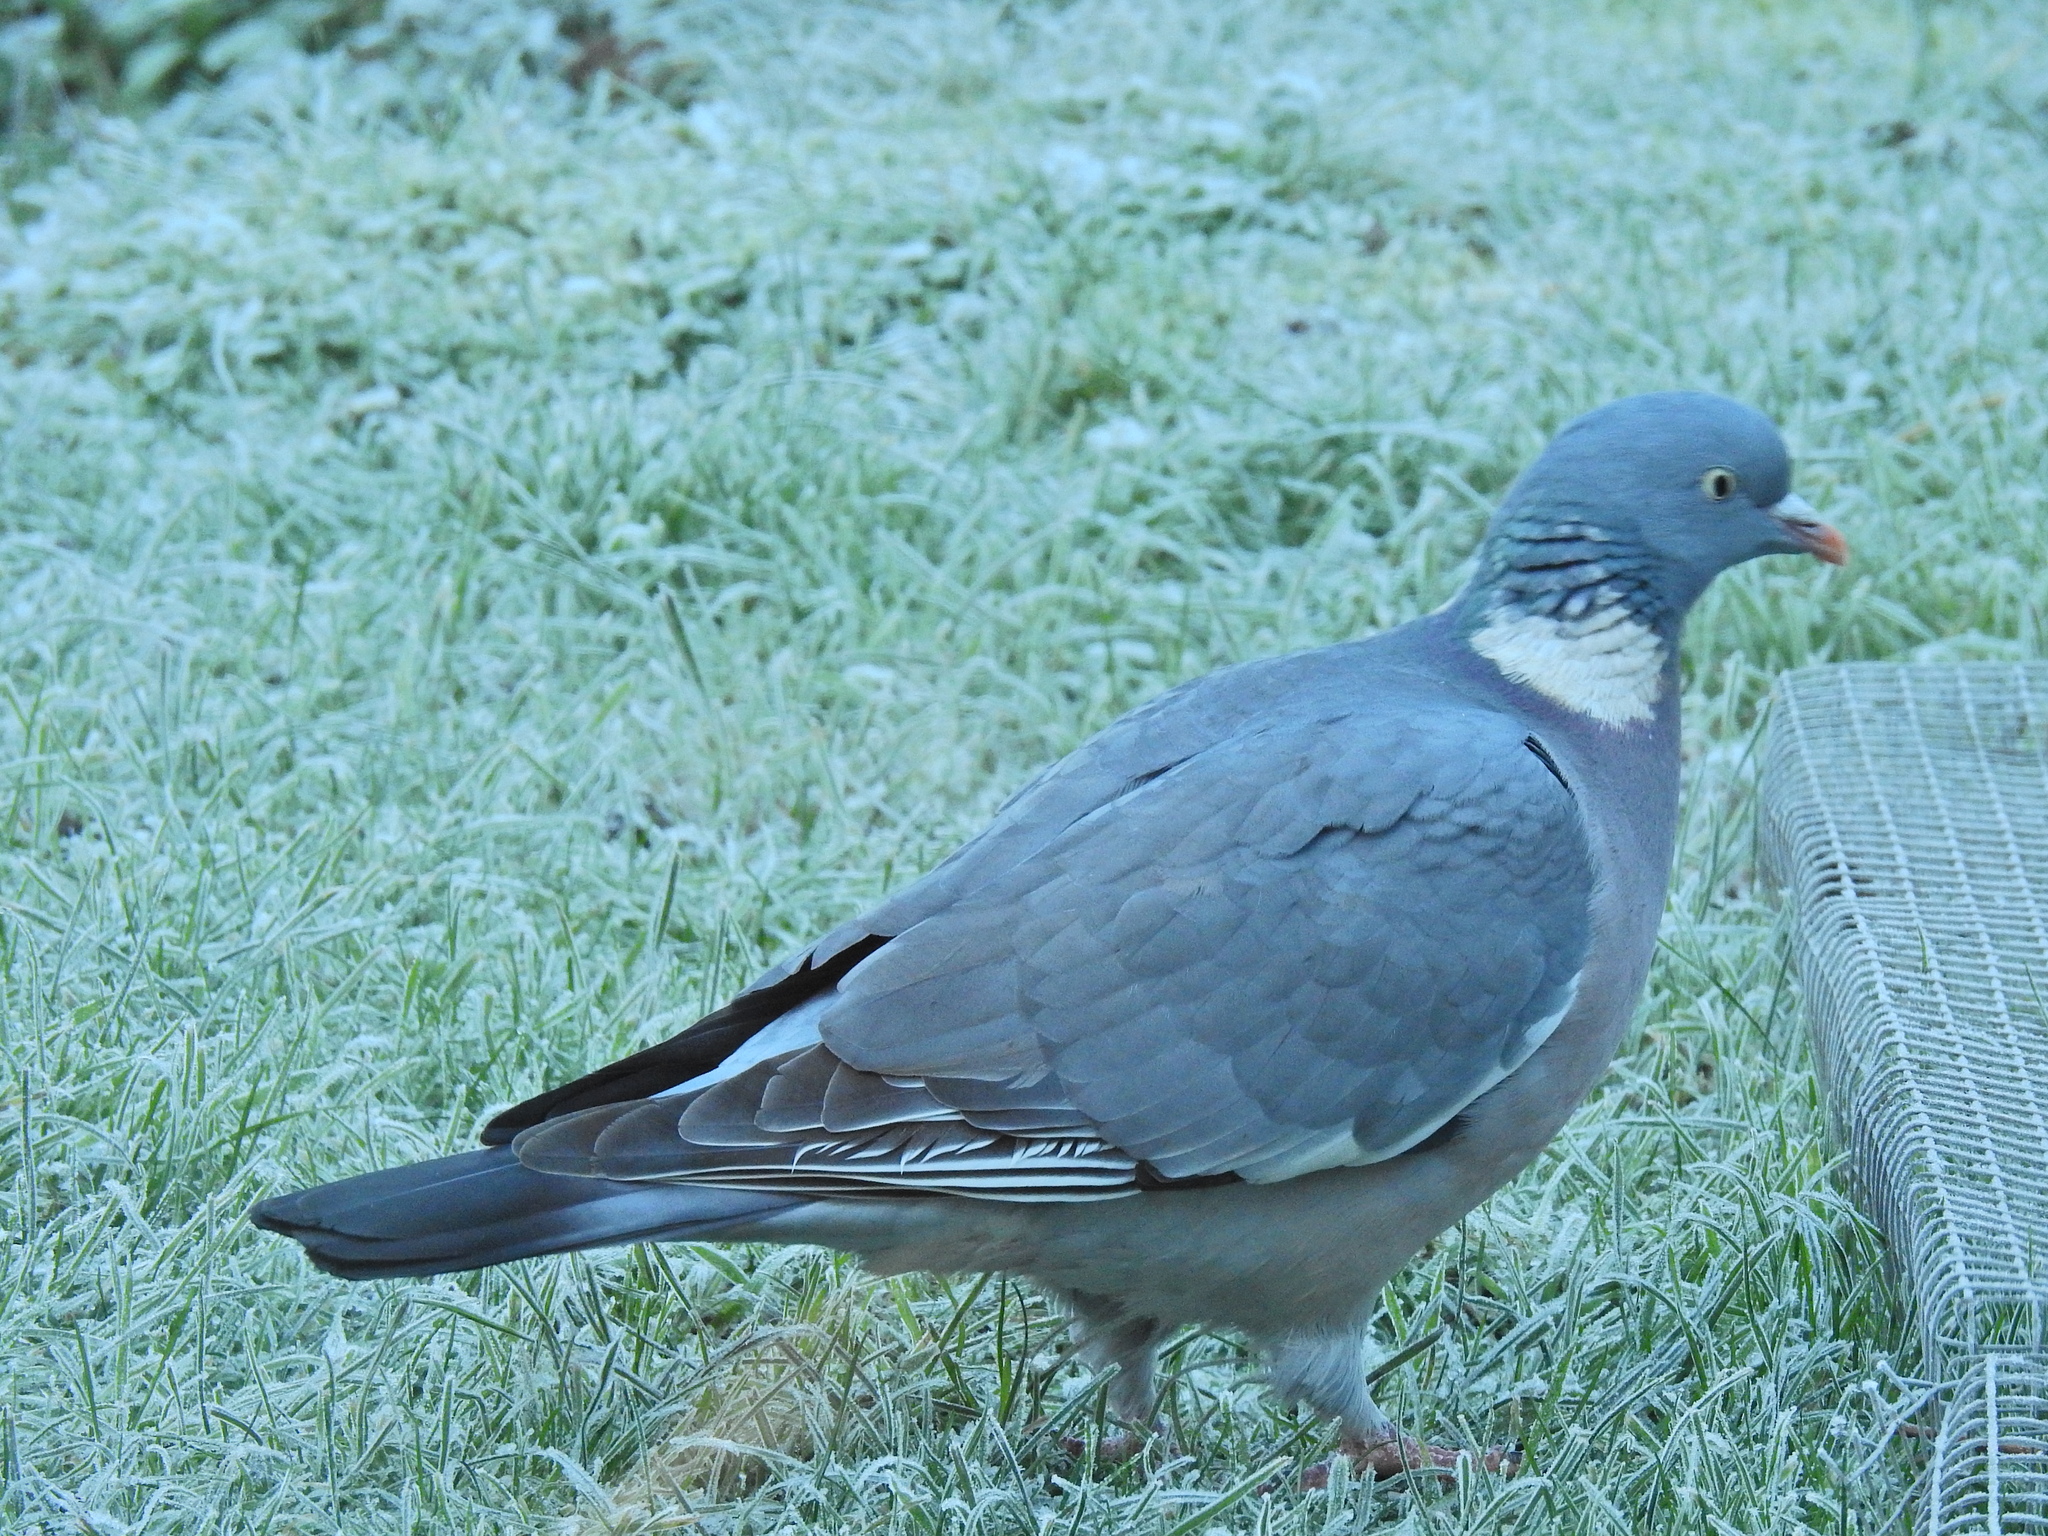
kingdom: Animalia
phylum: Chordata
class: Aves
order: Columbiformes
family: Columbidae
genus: Columba
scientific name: Columba palumbus
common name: Common wood pigeon
